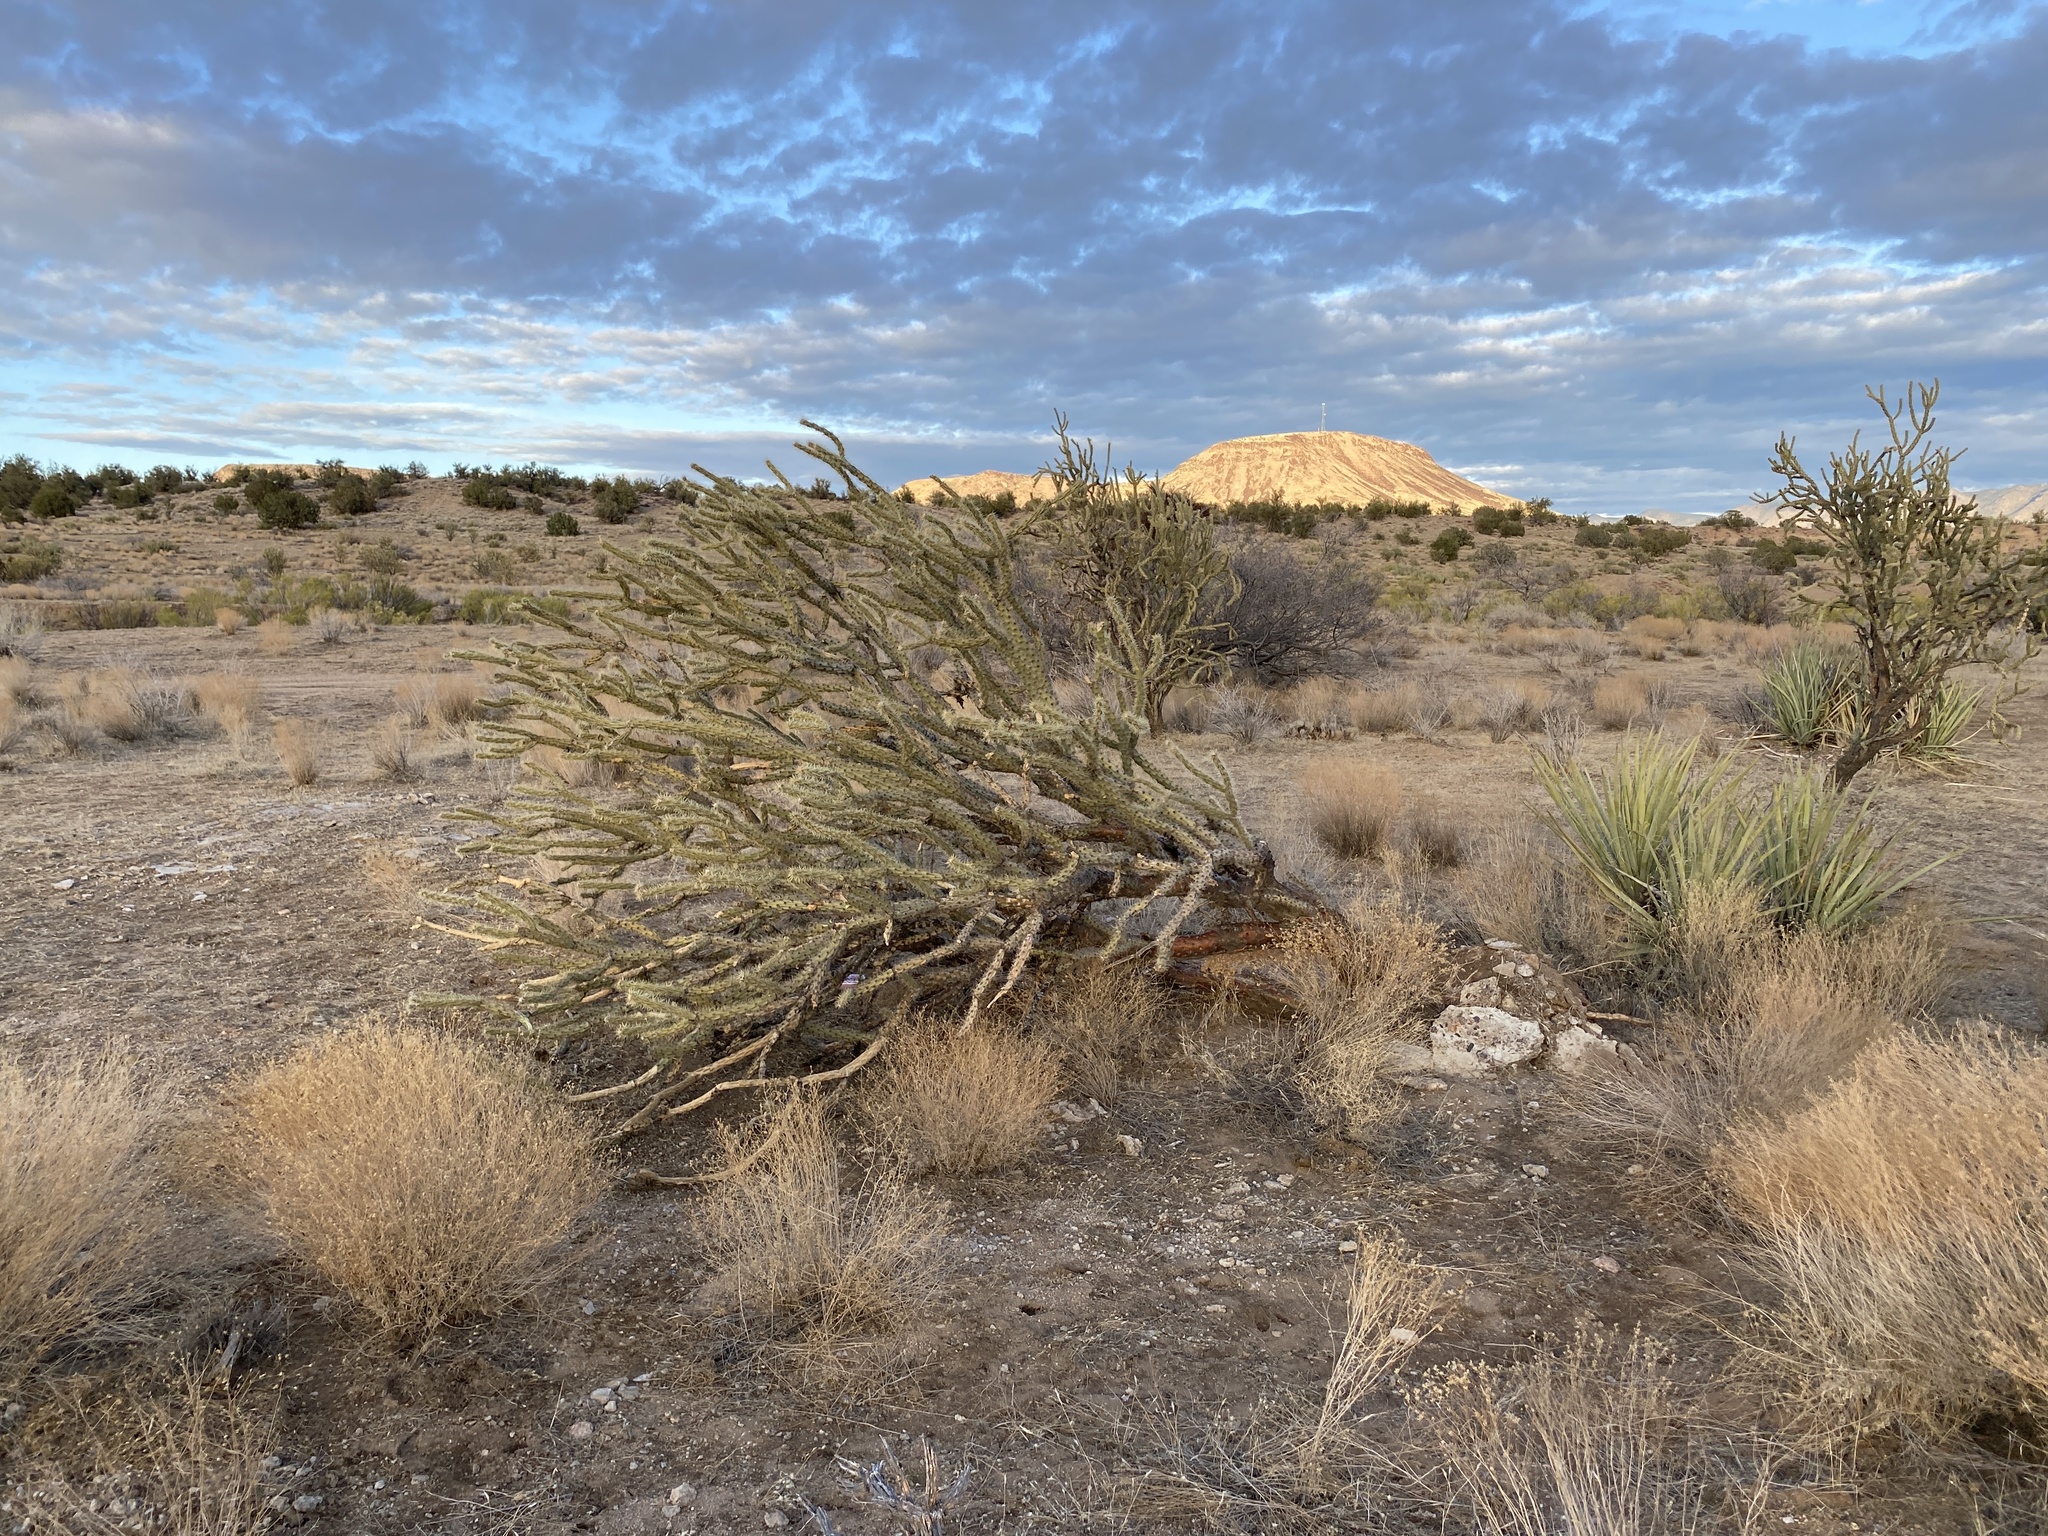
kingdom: Plantae
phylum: Tracheophyta
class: Magnoliopsida
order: Caryophyllales
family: Cactaceae
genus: Cylindropuntia
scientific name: Cylindropuntia acanthocarpa
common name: Buckhorn cholla
